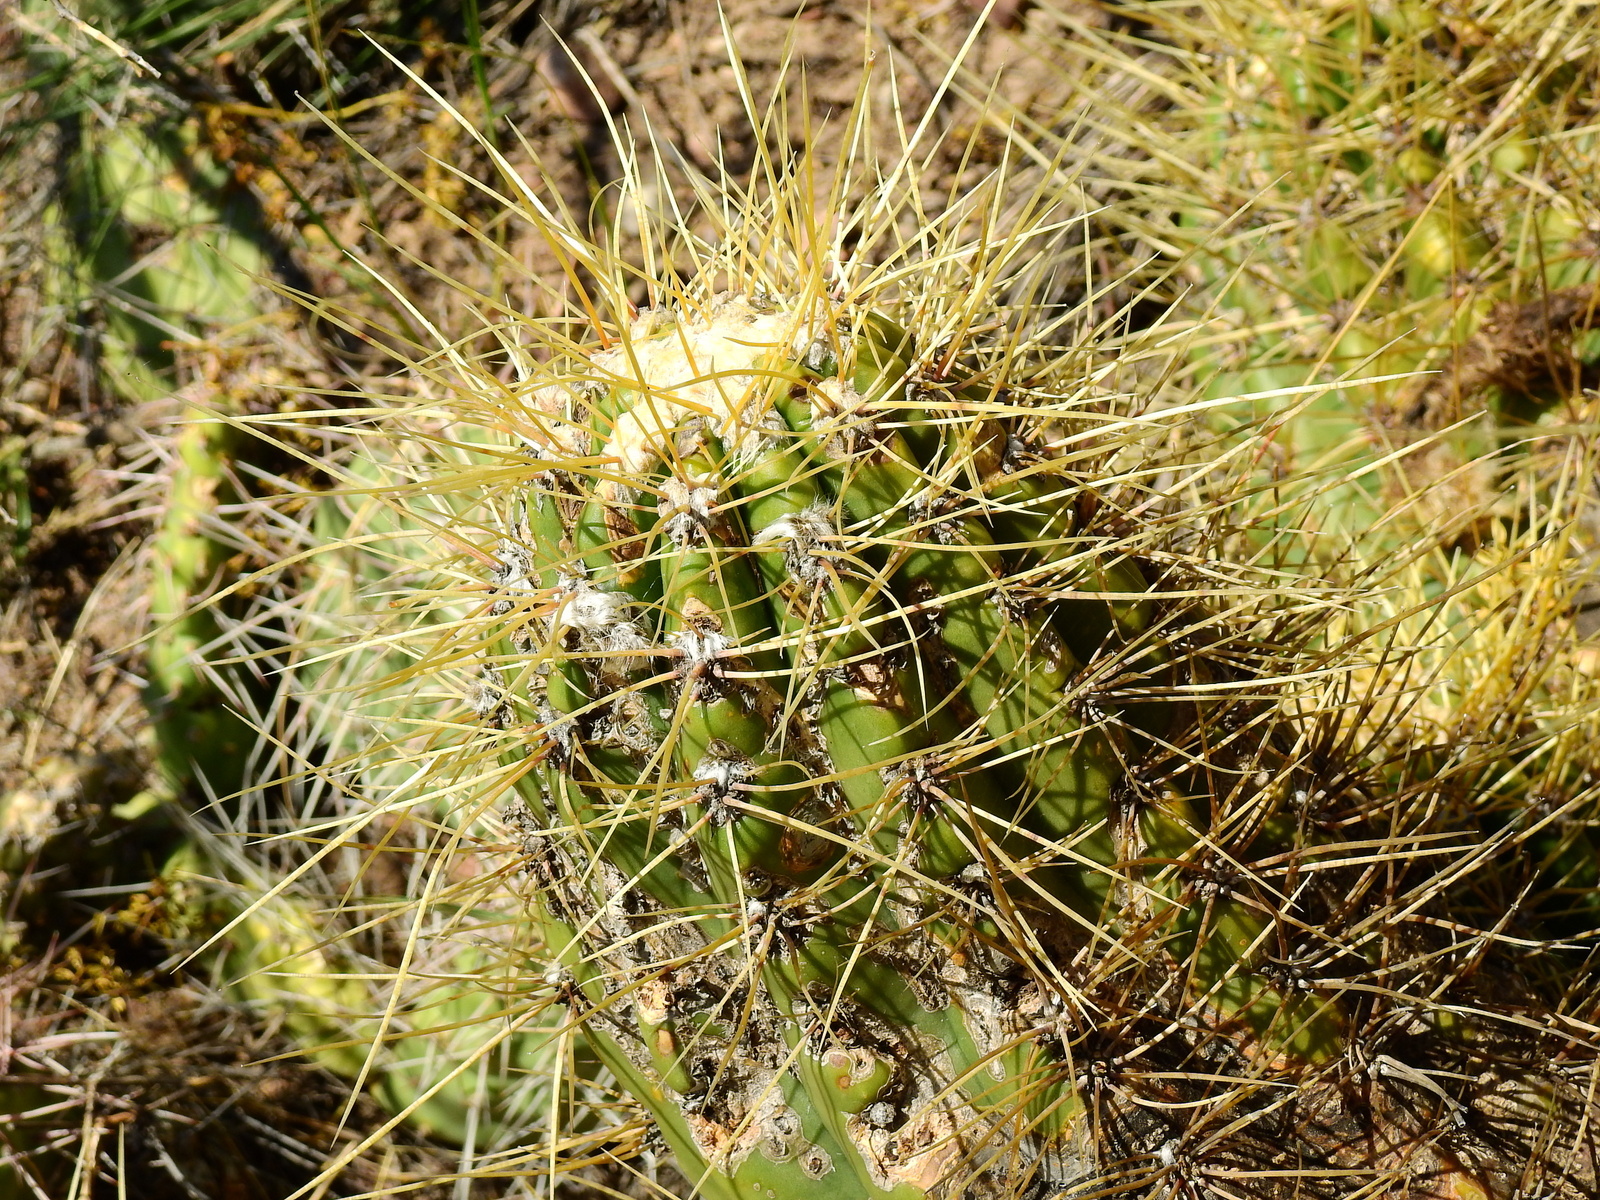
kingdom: Plantae
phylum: Tracheophyta
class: Magnoliopsida
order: Caryophyllales
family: Cactaceae
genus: Soehrensia
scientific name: Soehrensia candicans
